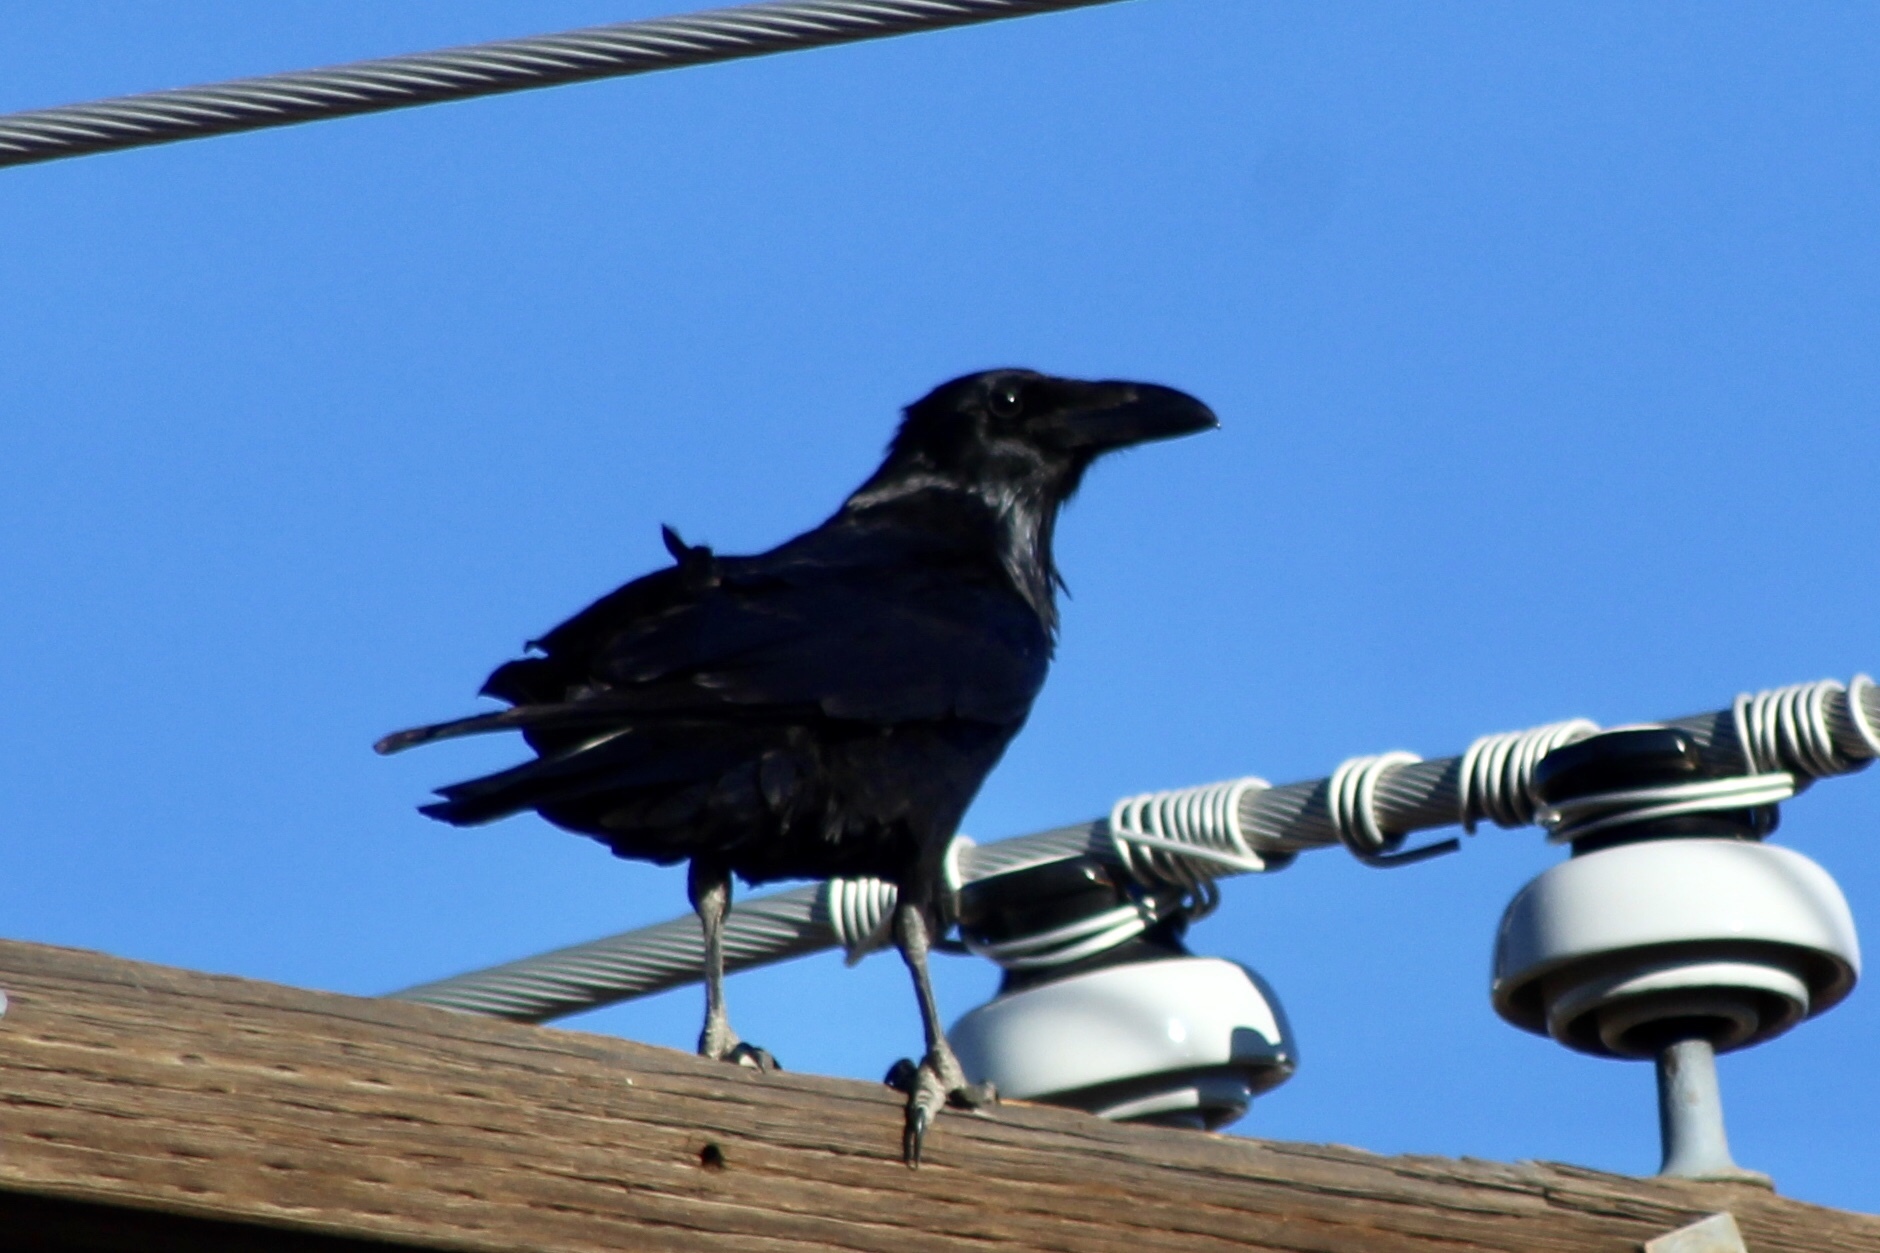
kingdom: Animalia
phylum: Chordata
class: Aves
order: Passeriformes
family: Corvidae
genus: Corvus
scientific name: Corvus corax
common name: Common raven
